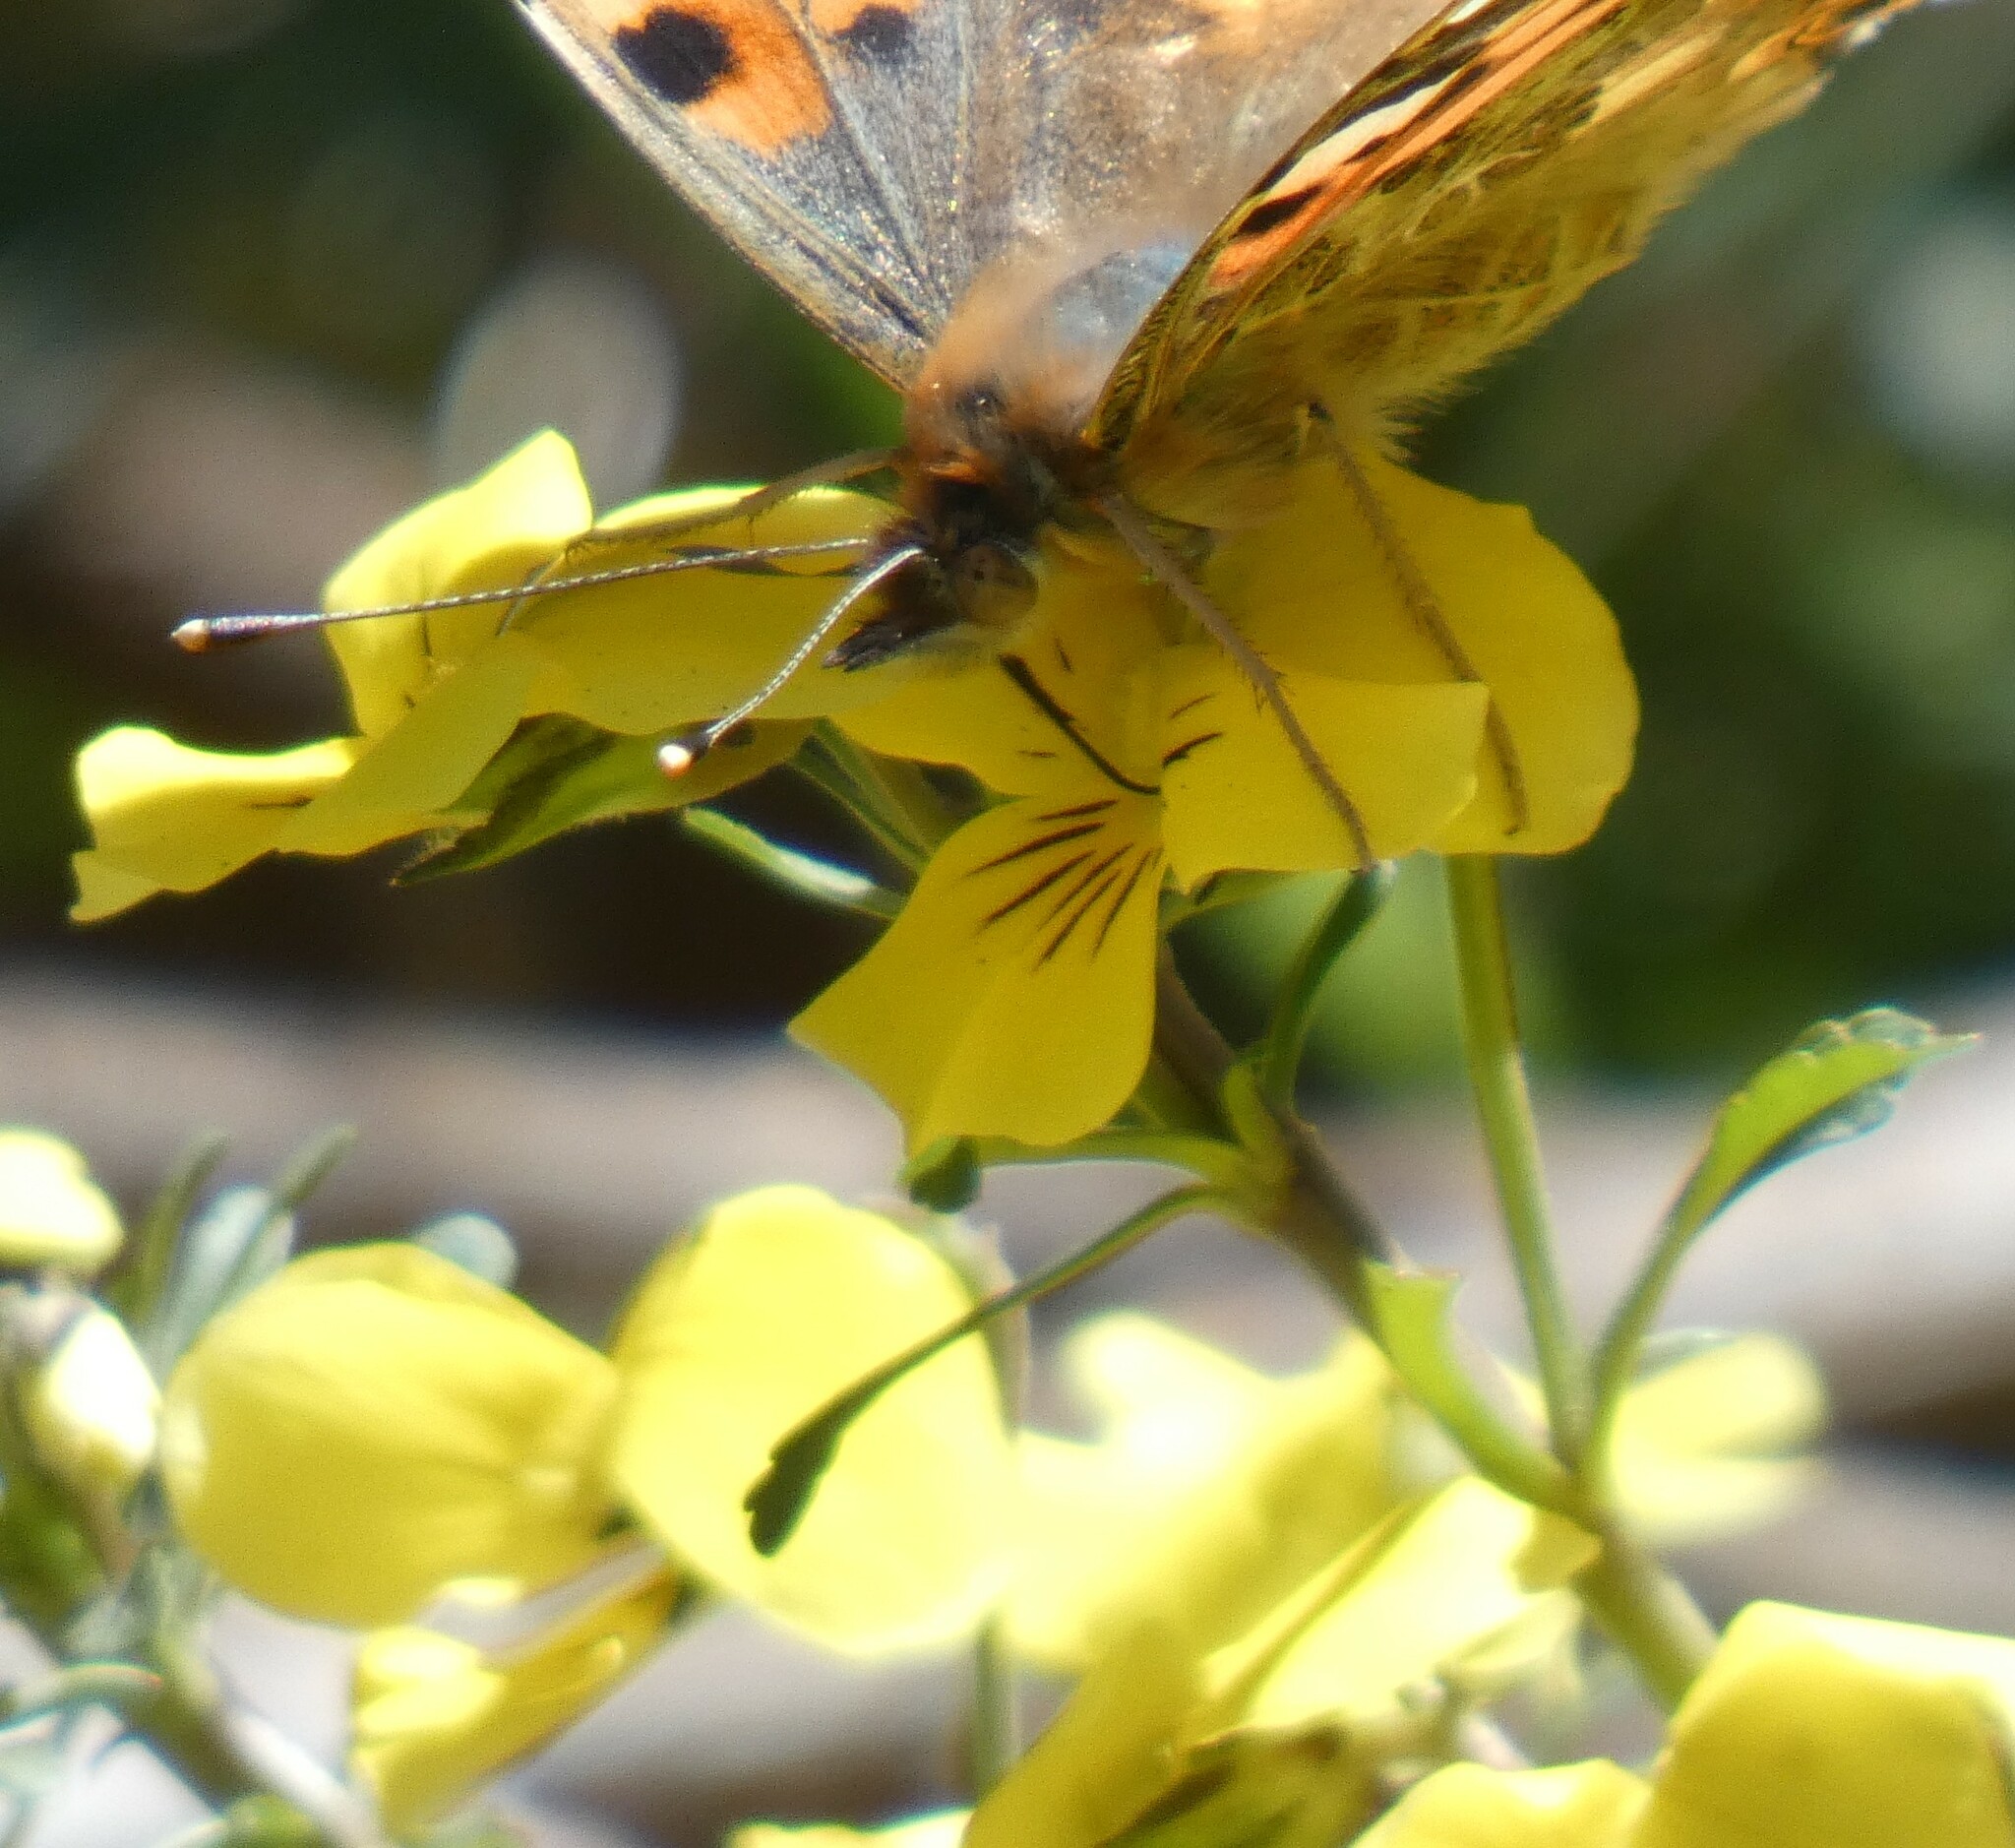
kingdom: Plantae
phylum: Tracheophyta
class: Magnoliopsida
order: Malpighiales
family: Violaceae
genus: Viola
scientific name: Viola paradoxa
